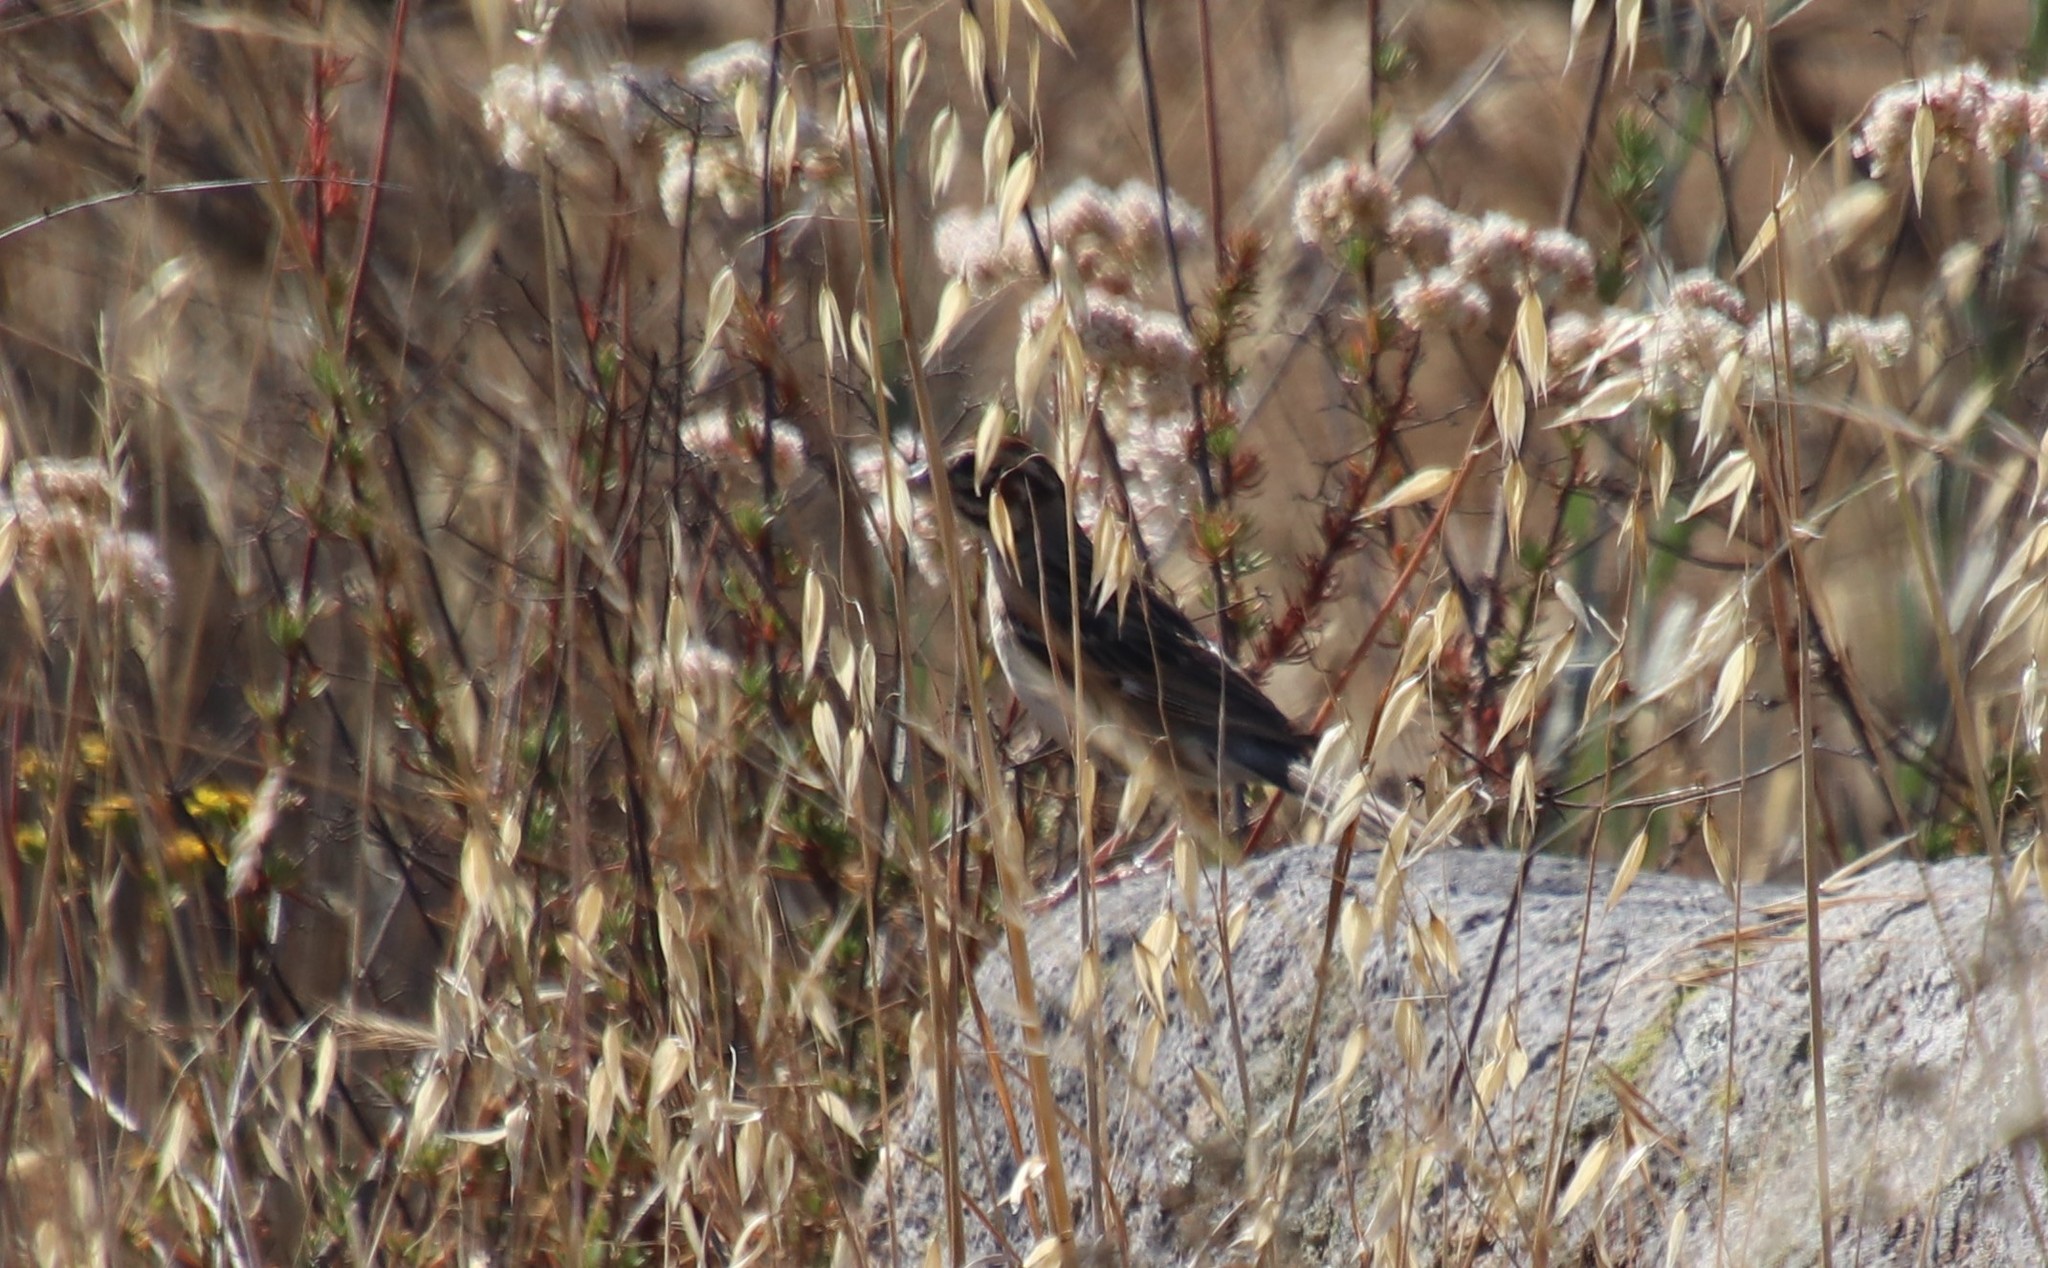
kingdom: Animalia
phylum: Chordata
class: Aves
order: Passeriformes
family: Passerellidae
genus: Chondestes
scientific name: Chondestes grammacus
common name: Lark sparrow
